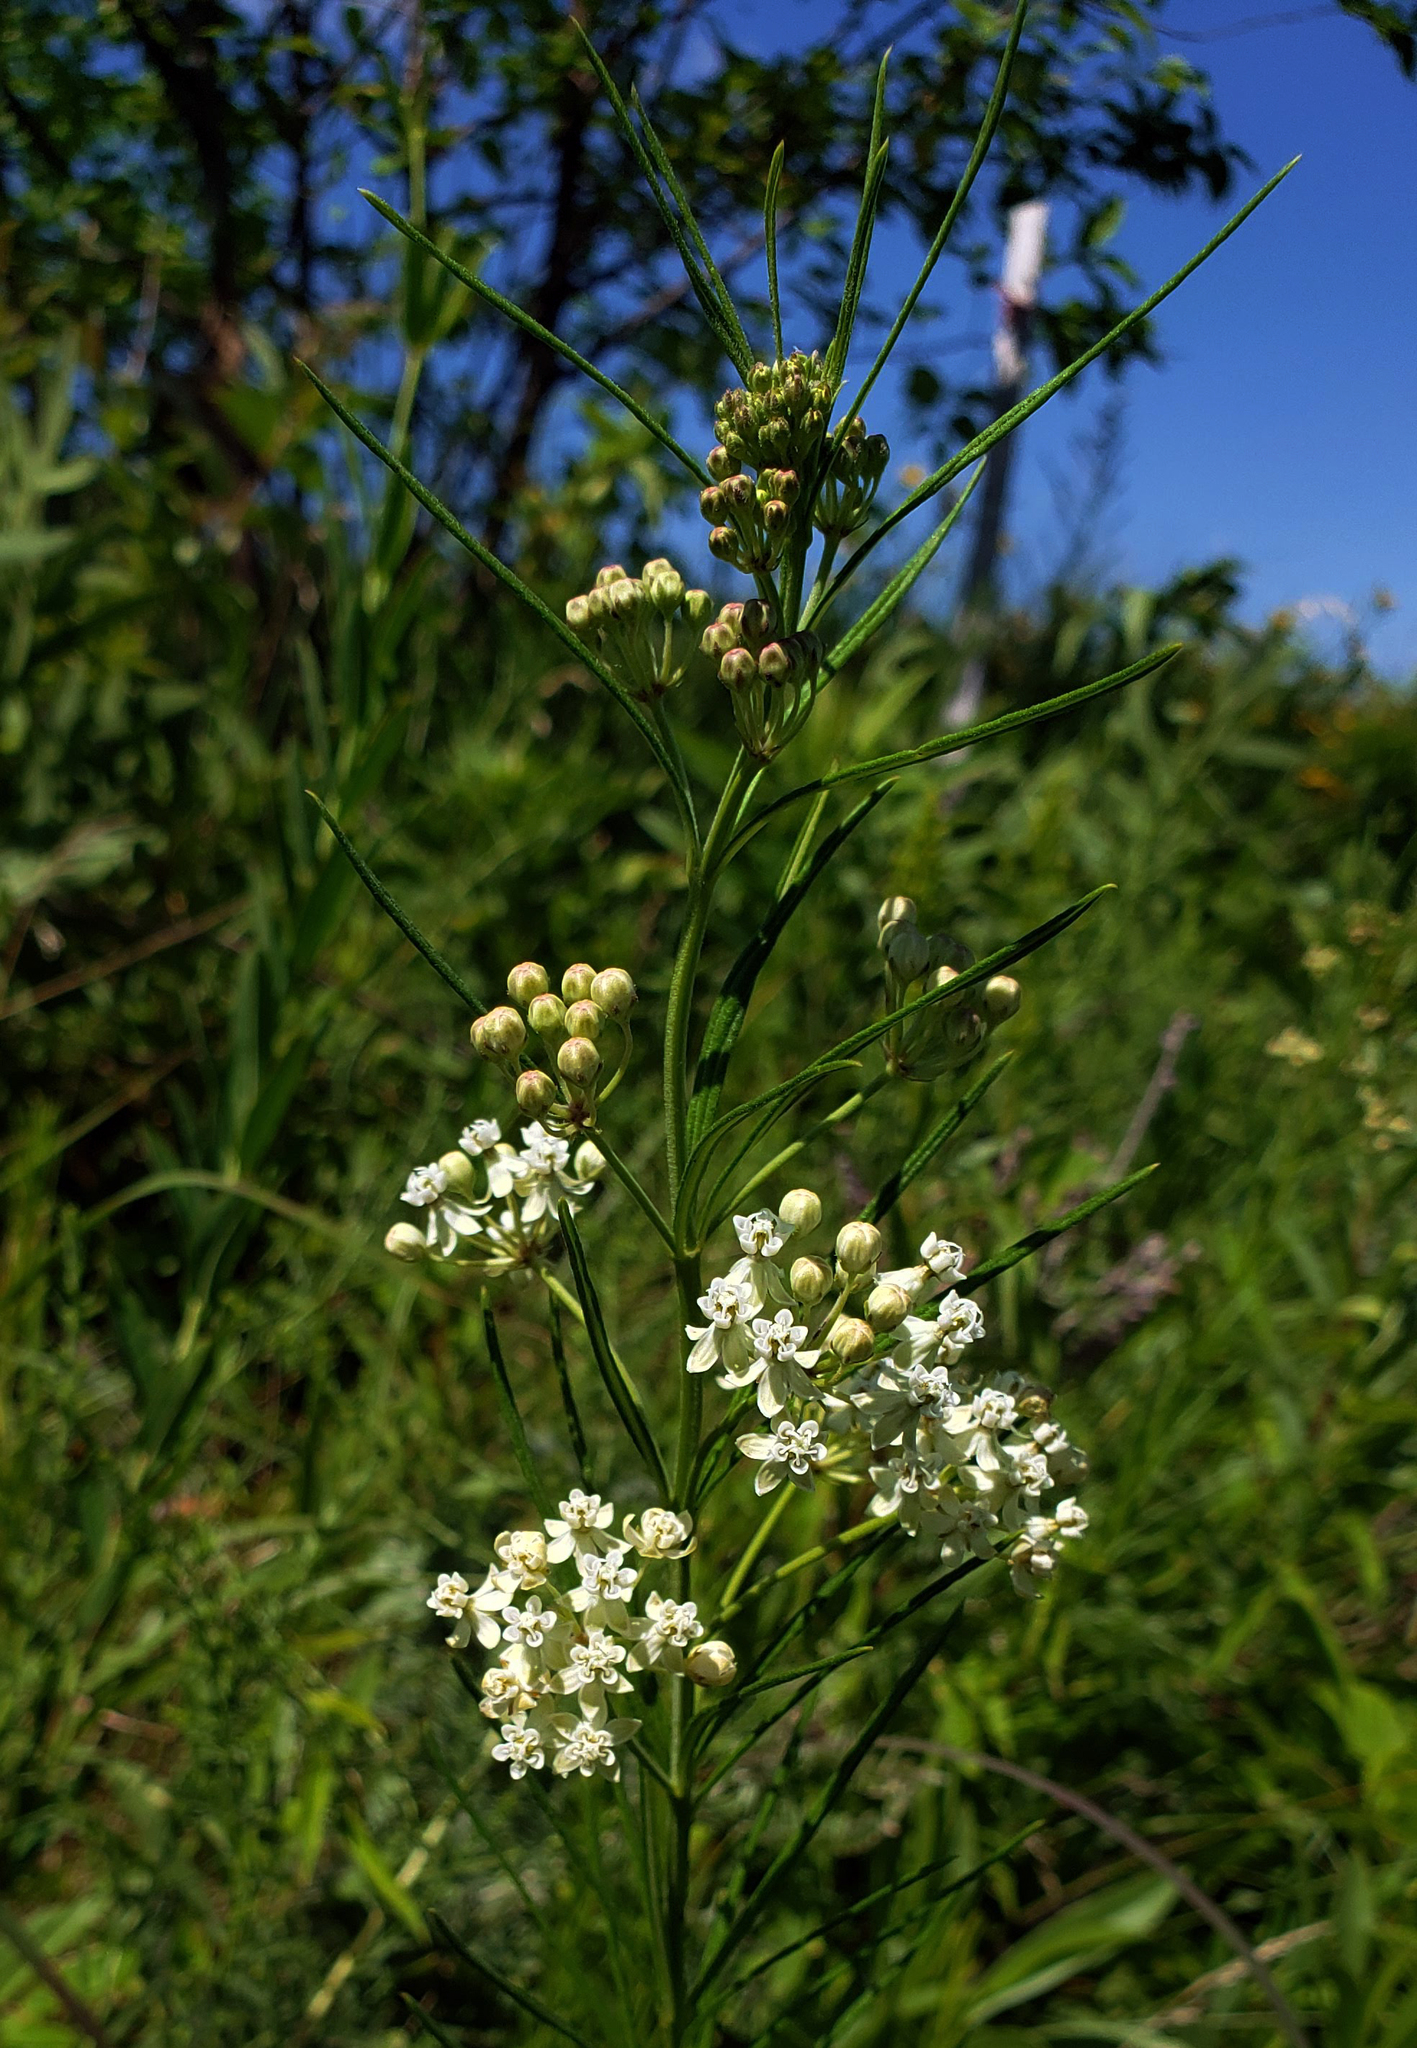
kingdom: Plantae
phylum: Tracheophyta
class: Magnoliopsida
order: Gentianales
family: Apocynaceae
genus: Asclepias
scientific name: Asclepias verticillata
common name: Eastern whorled milkweed
